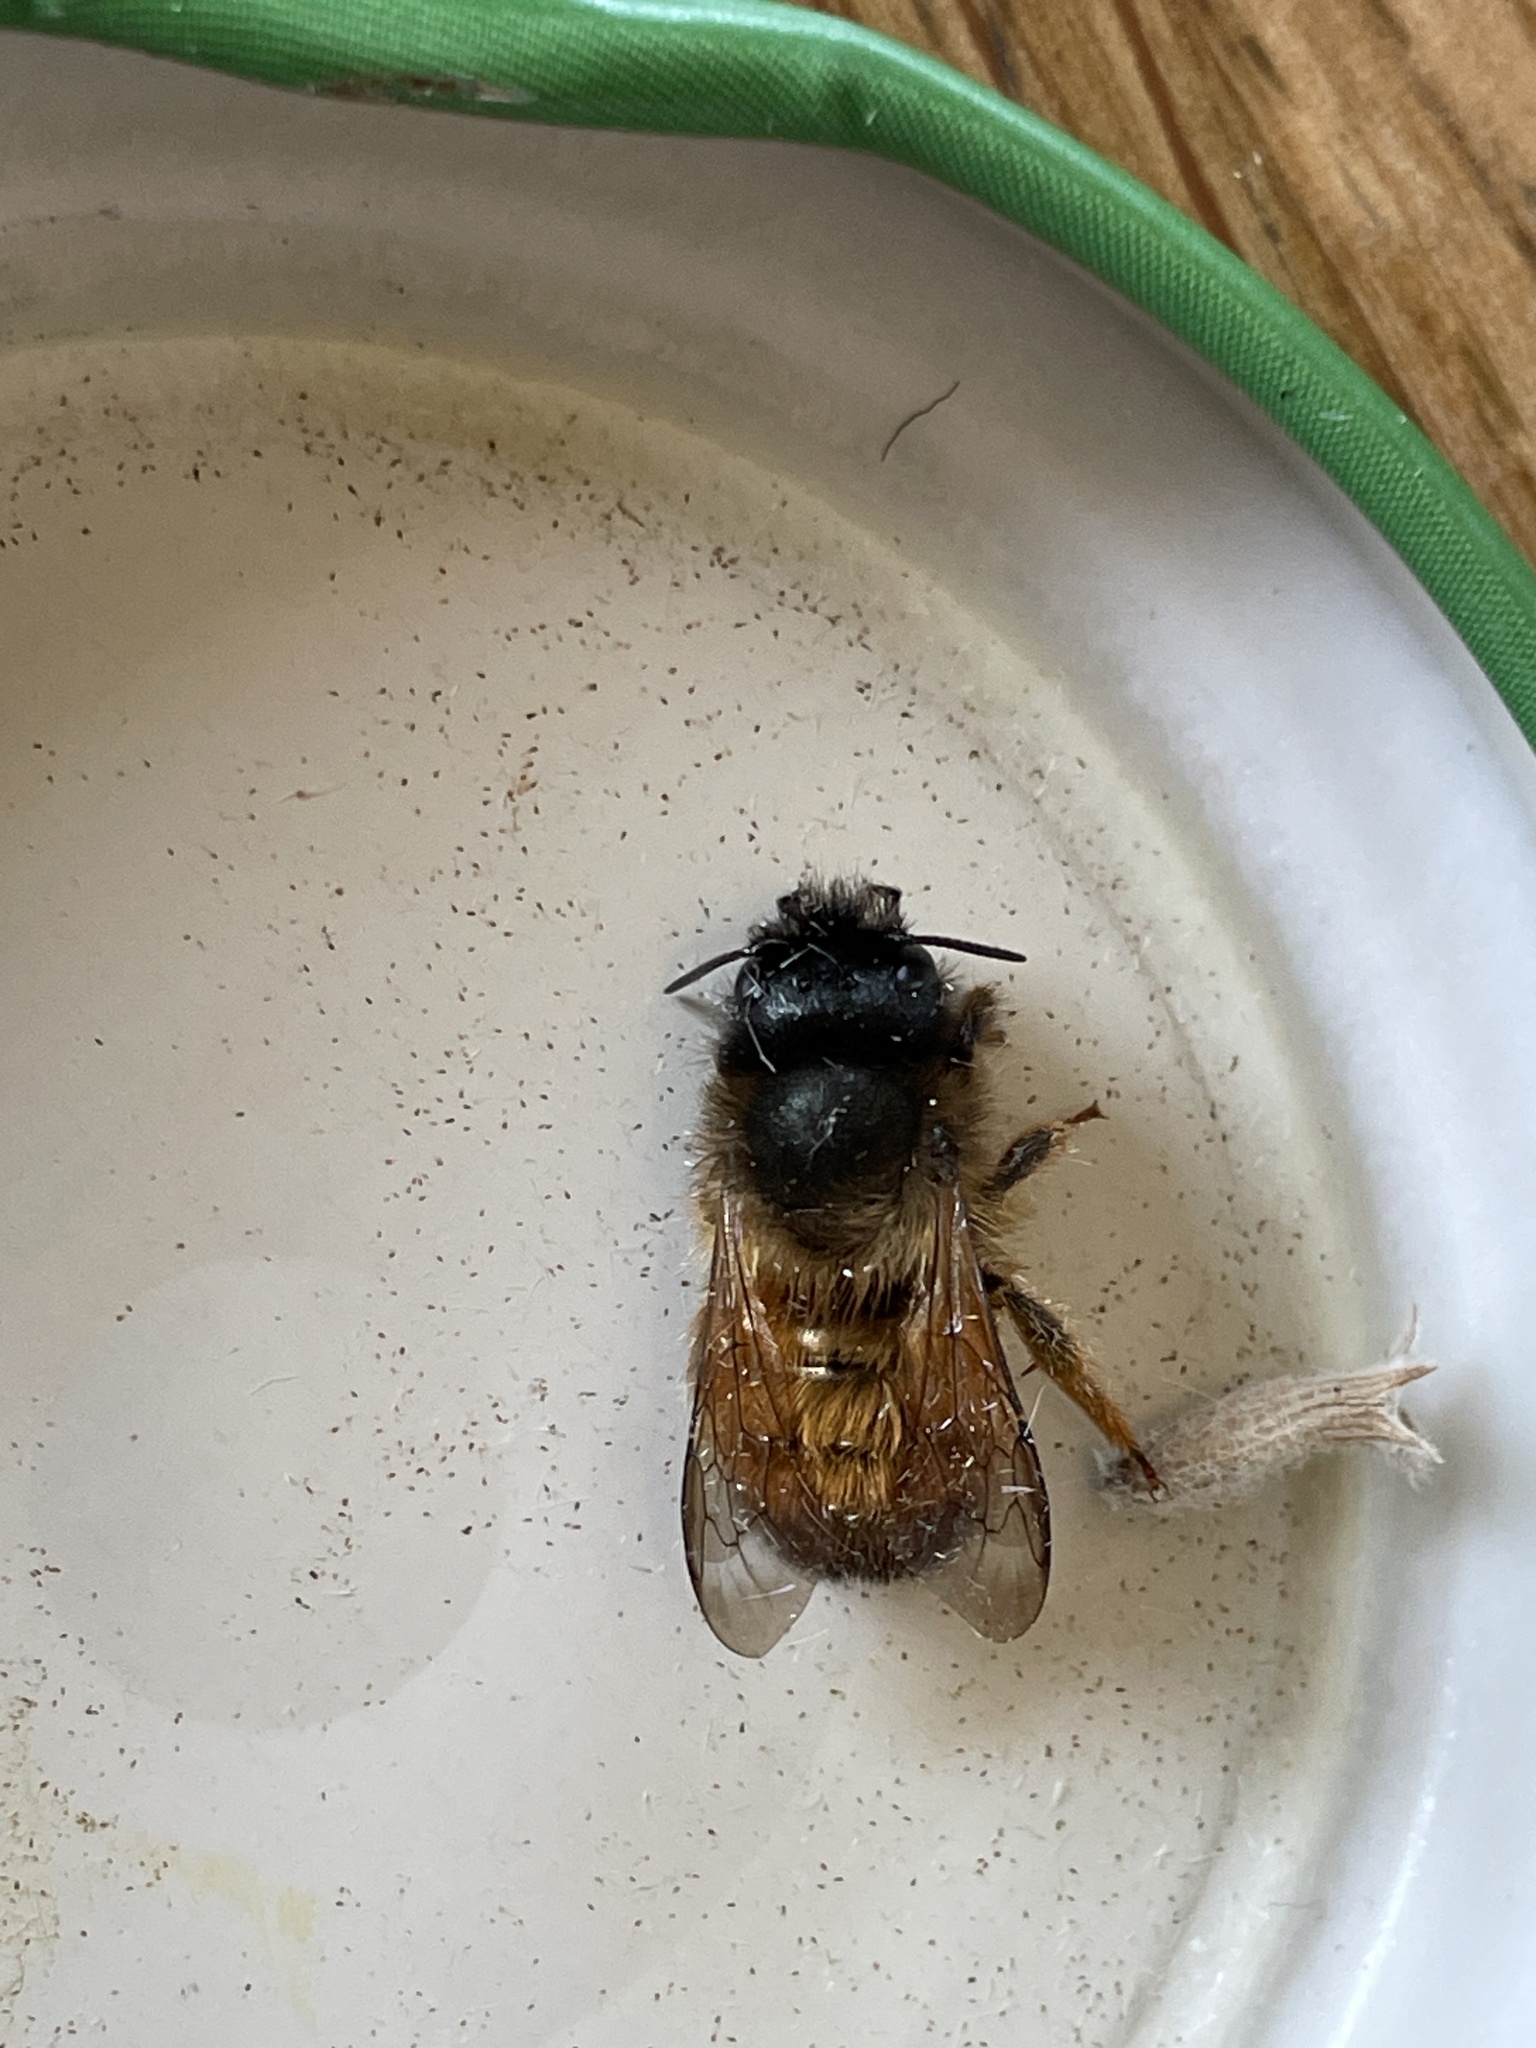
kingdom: Animalia
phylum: Arthropoda
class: Insecta
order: Hymenoptera
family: Megachilidae
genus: Osmia
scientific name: Osmia bicornis
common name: Red mason bee
